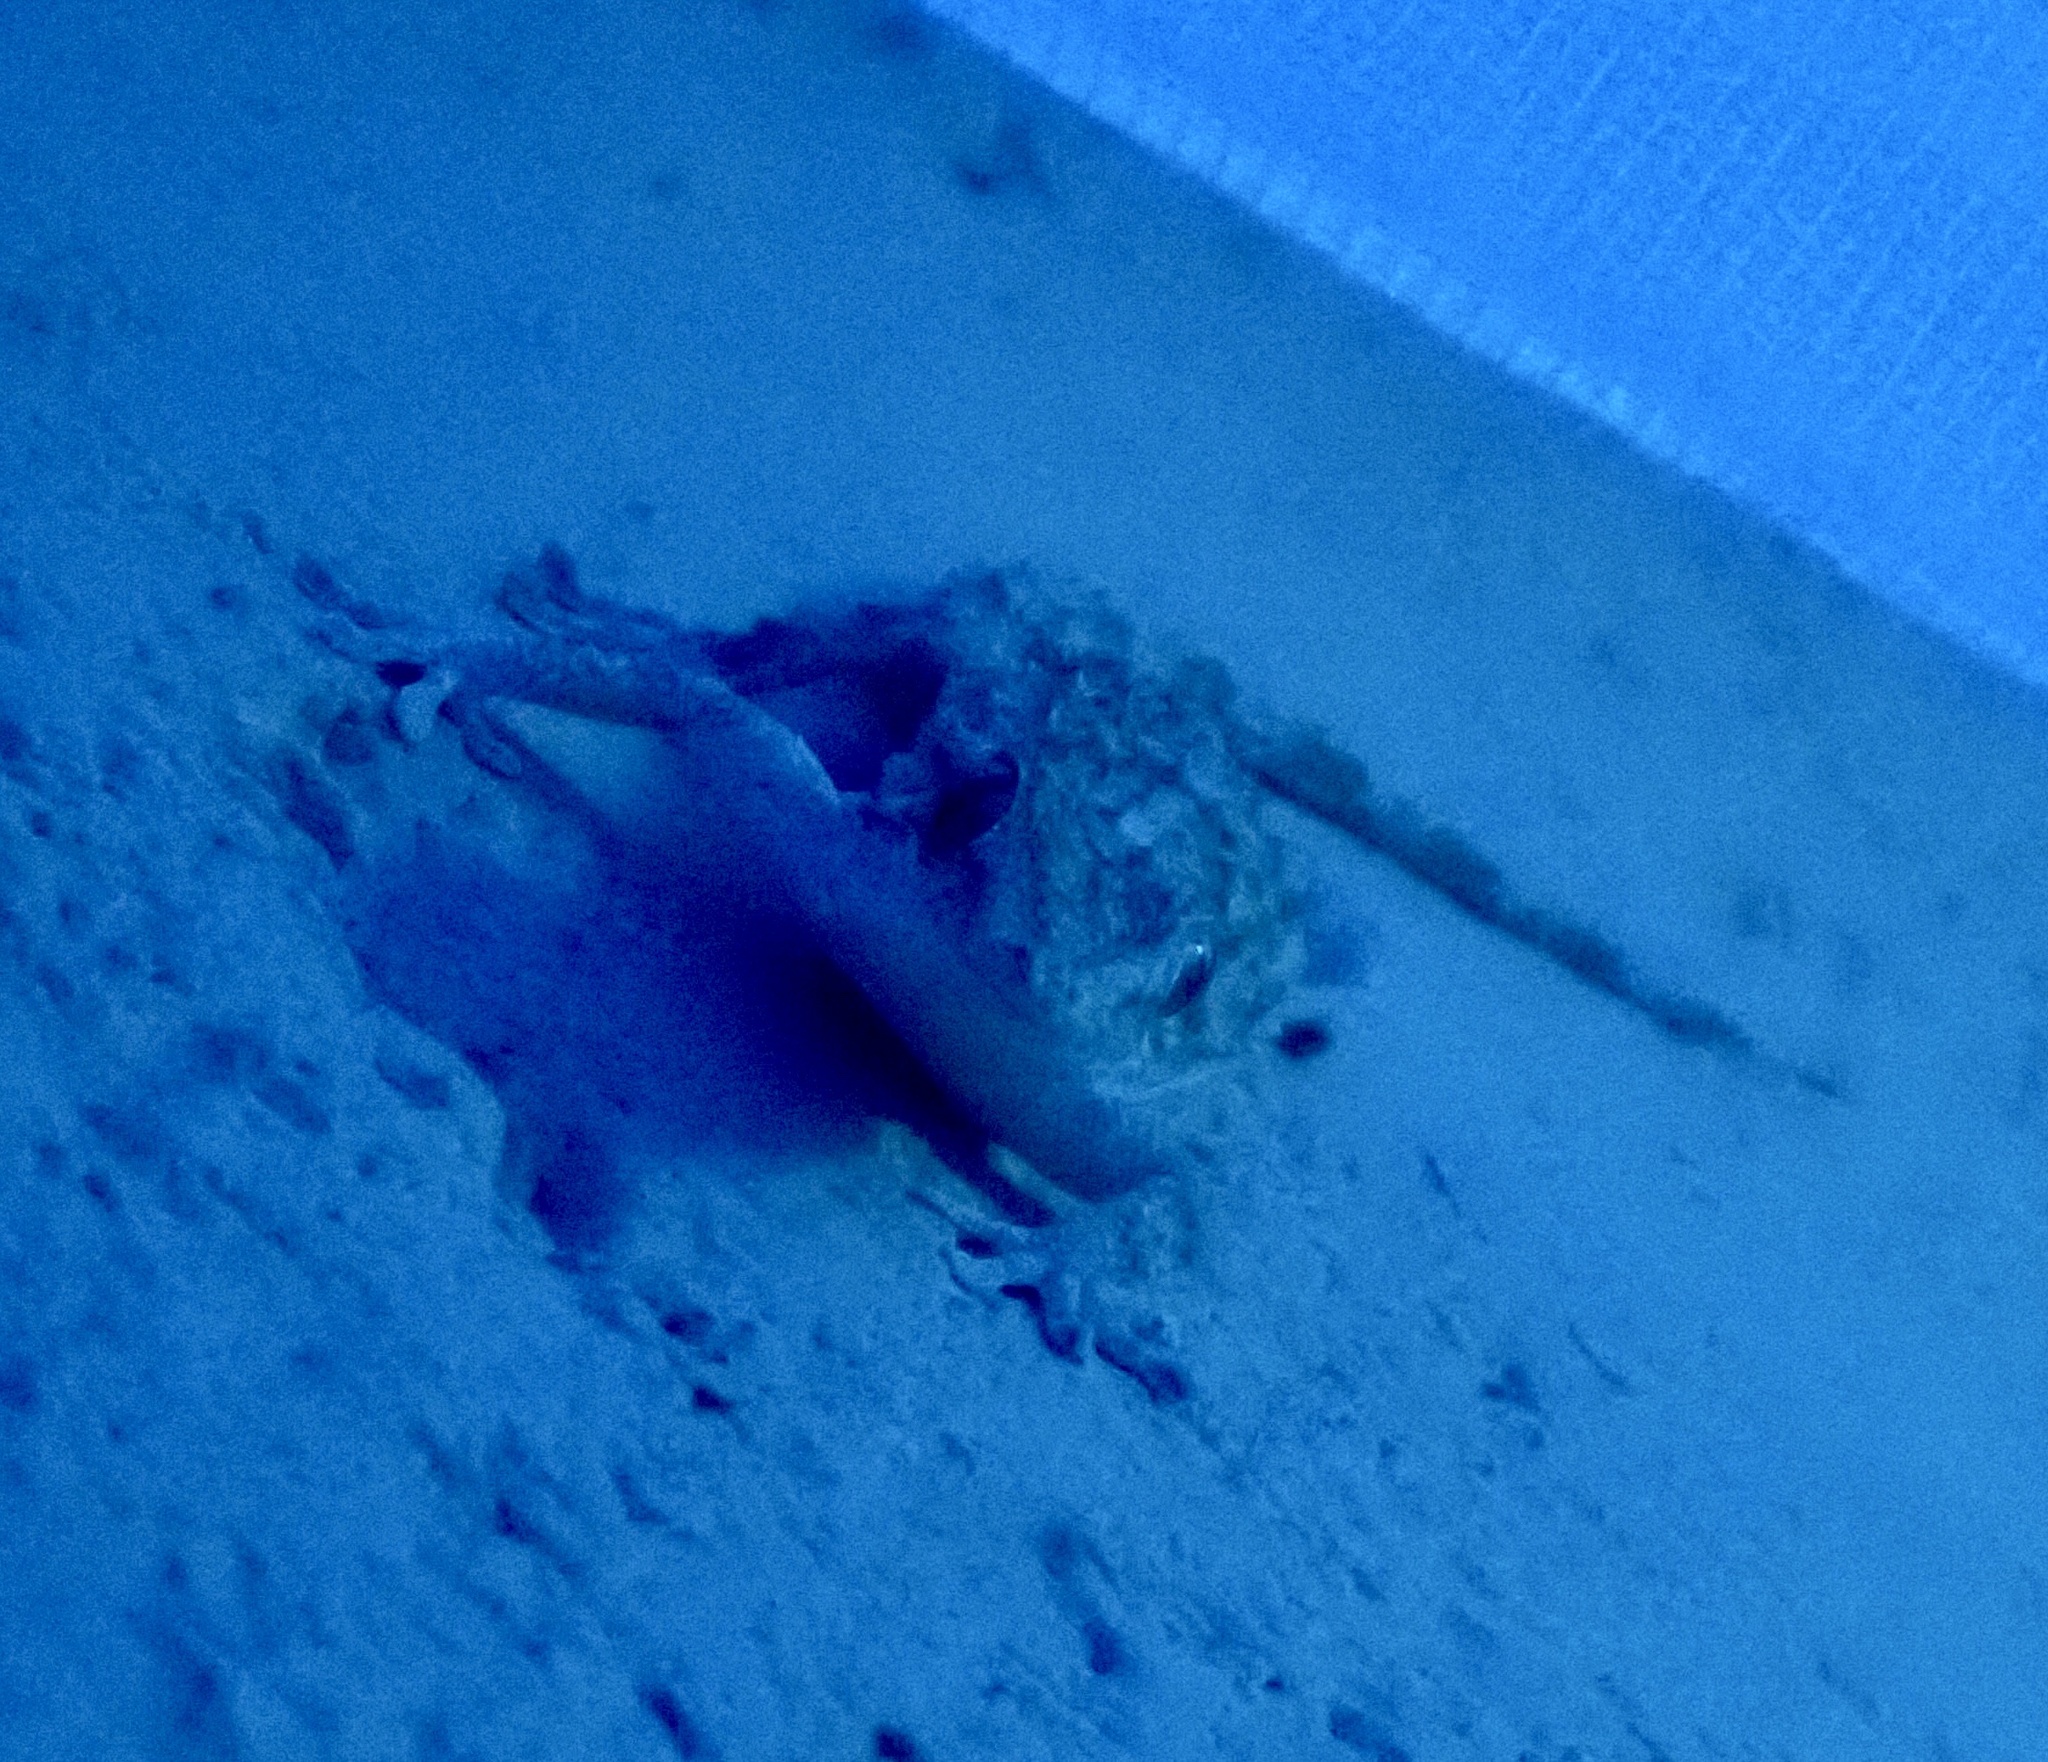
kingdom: Animalia
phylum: Chordata
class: Squamata
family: Phyllodactylidae
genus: Tarentola
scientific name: Tarentola mauritanica
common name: Moorish gecko
